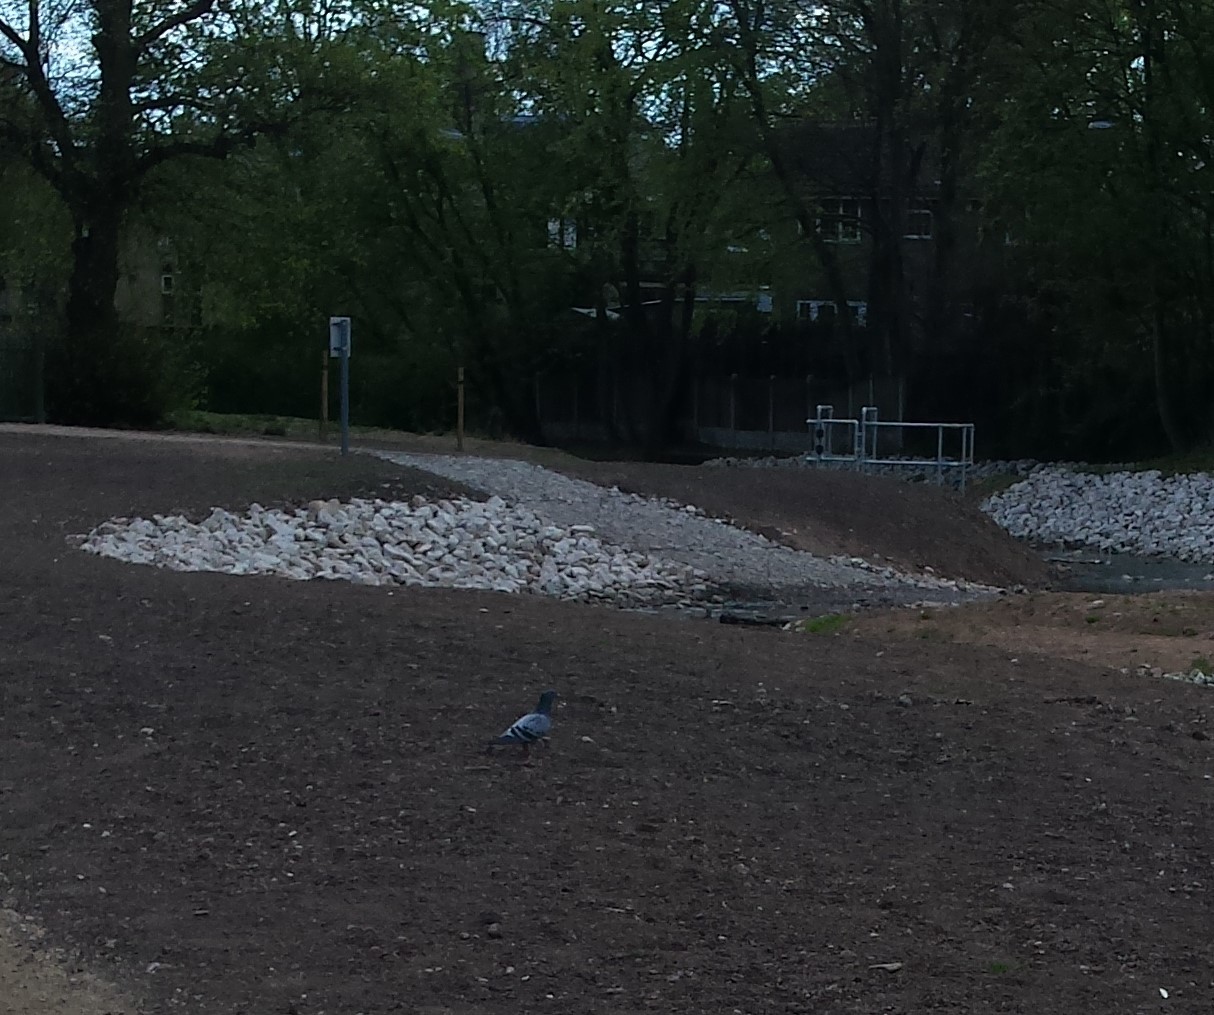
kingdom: Animalia
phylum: Chordata
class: Aves
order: Columbiformes
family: Columbidae
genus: Columba
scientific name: Columba livia
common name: Rock pigeon
